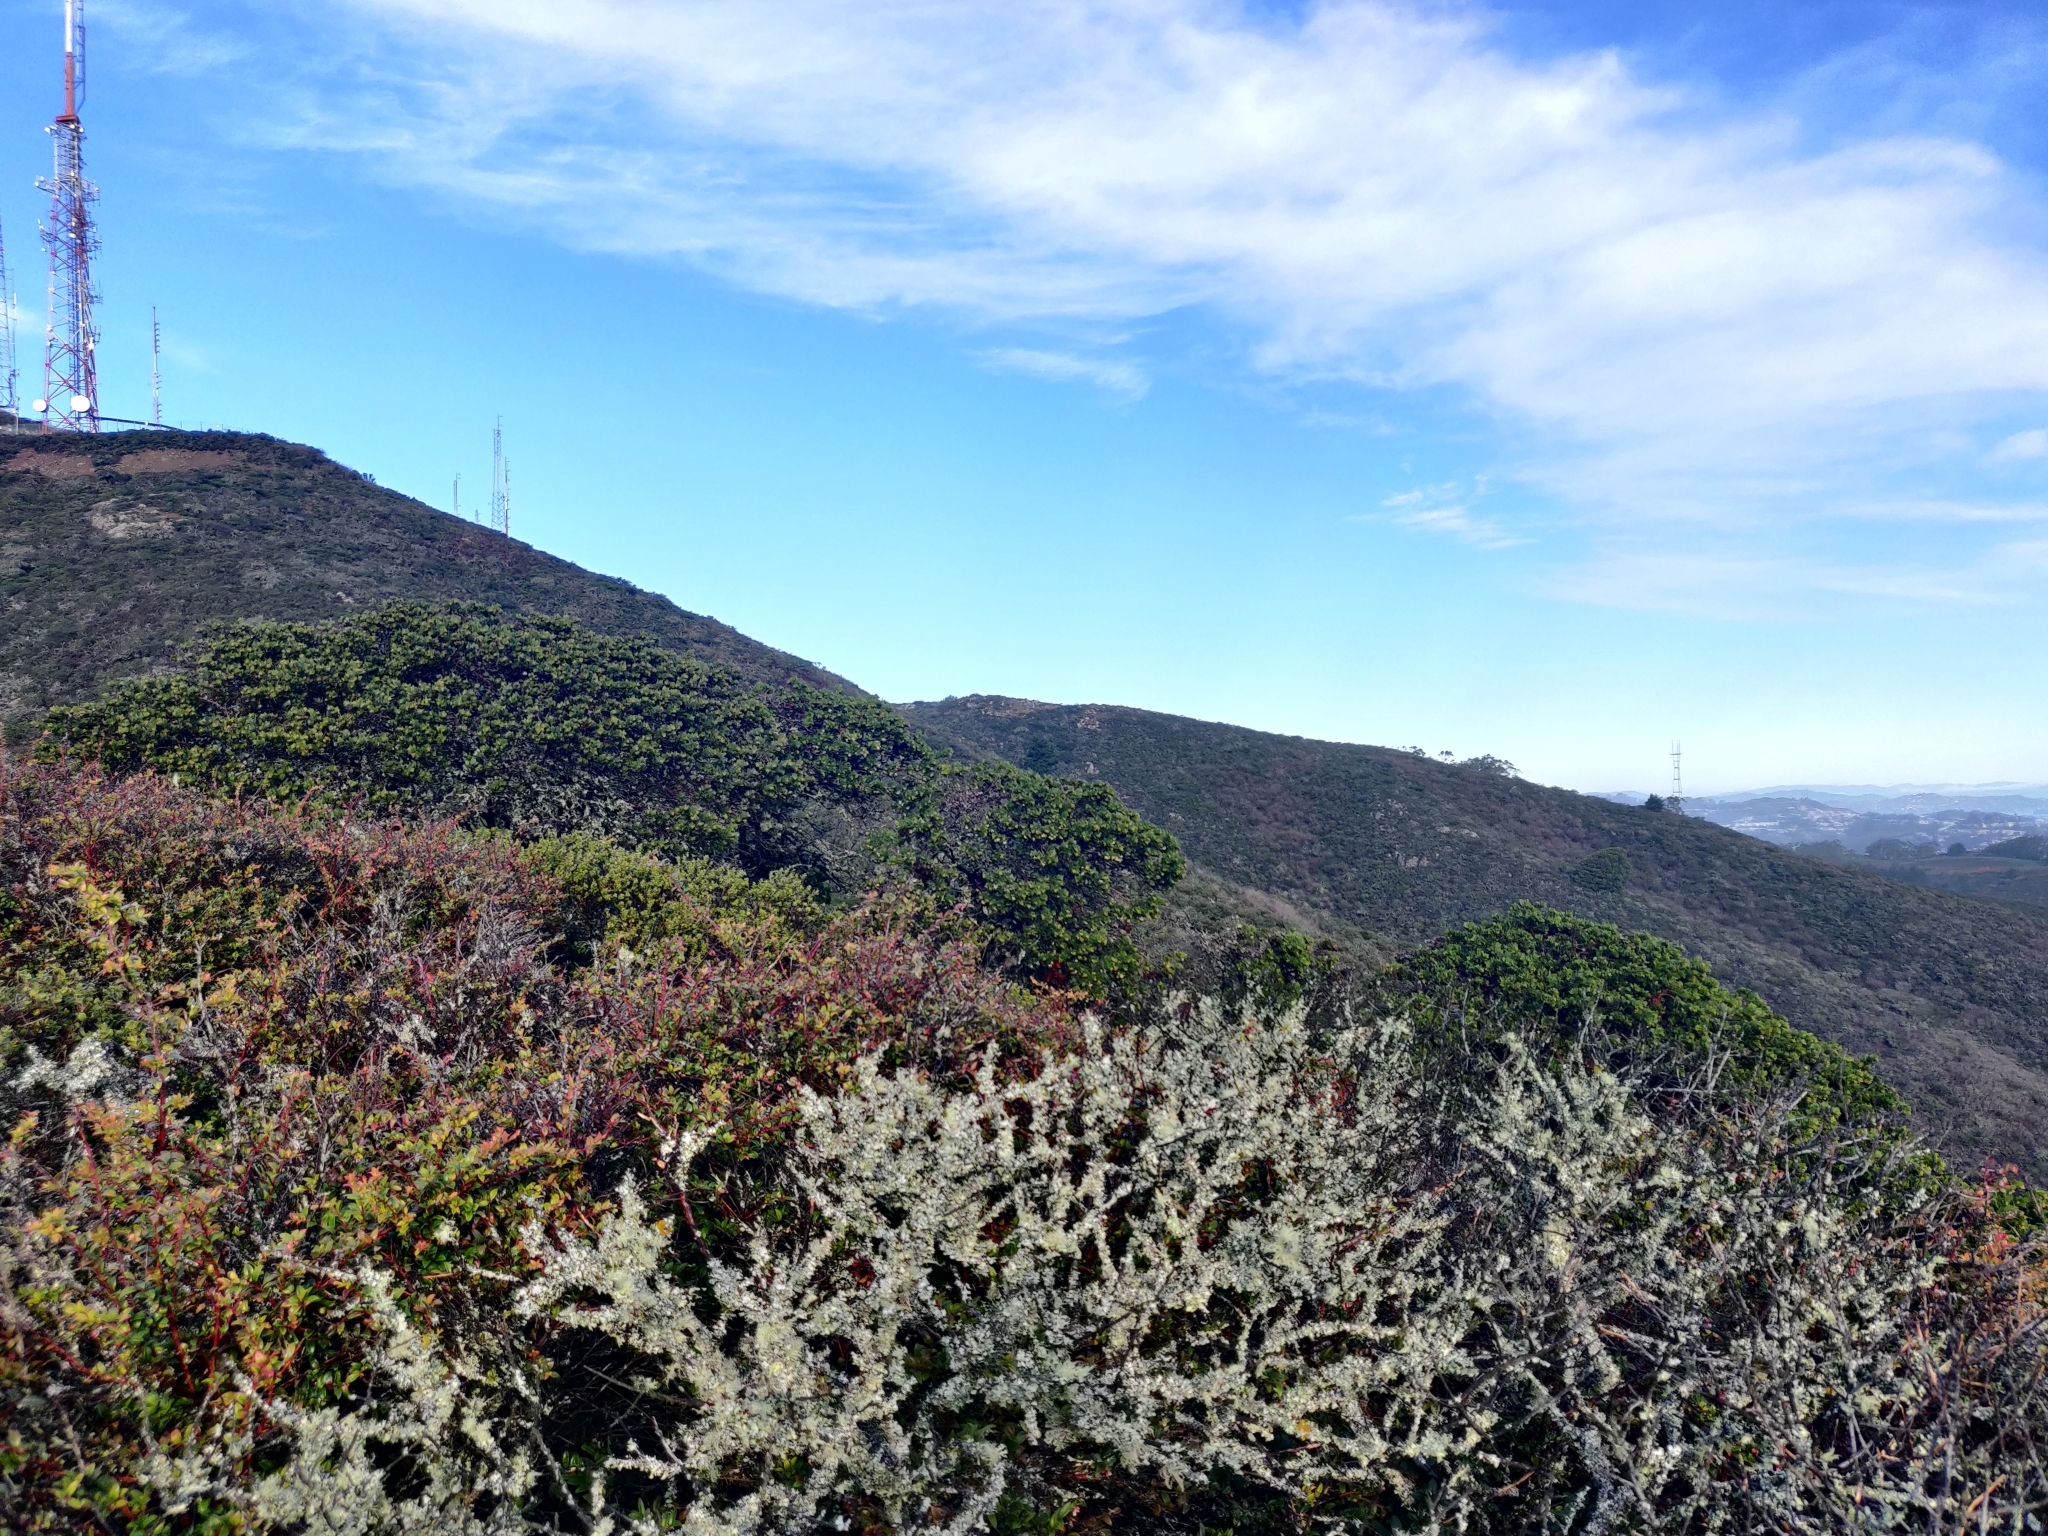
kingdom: Plantae
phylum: Tracheophyta
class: Magnoliopsida
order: Ericales
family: Ericaceae
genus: Arctostaphylos
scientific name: Arctostaphylos montaraensis
